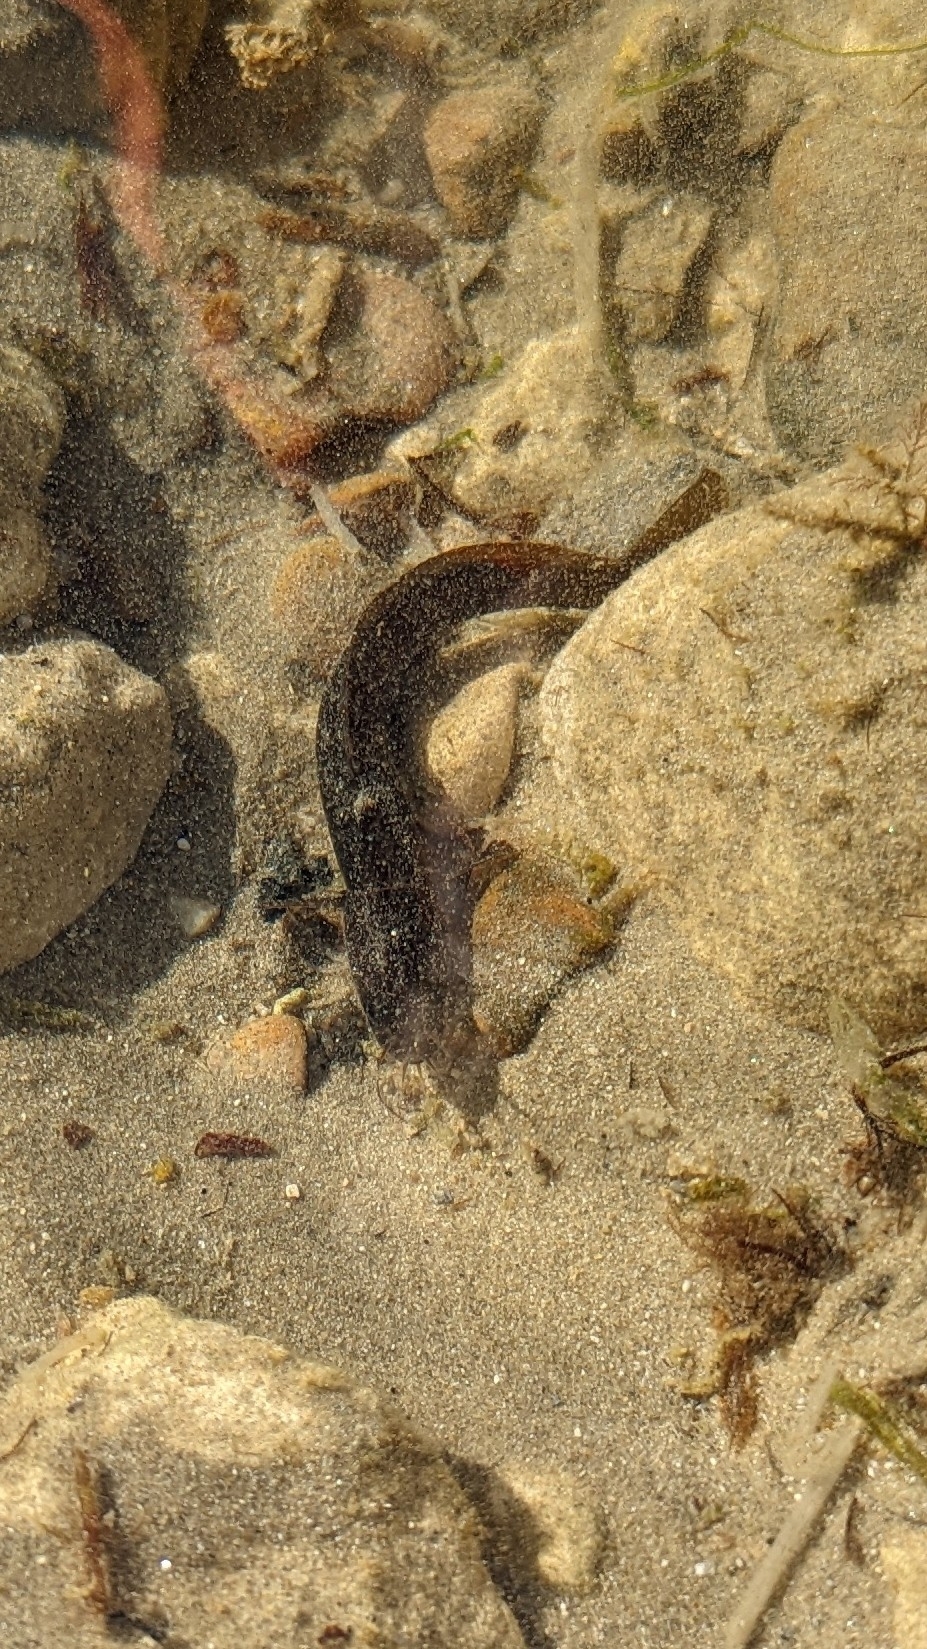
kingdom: Animalia
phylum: Chordata
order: Gadiformes
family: Lotidae
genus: Ciliata
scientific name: Ciliata mustela
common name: Five-bearded rockling
